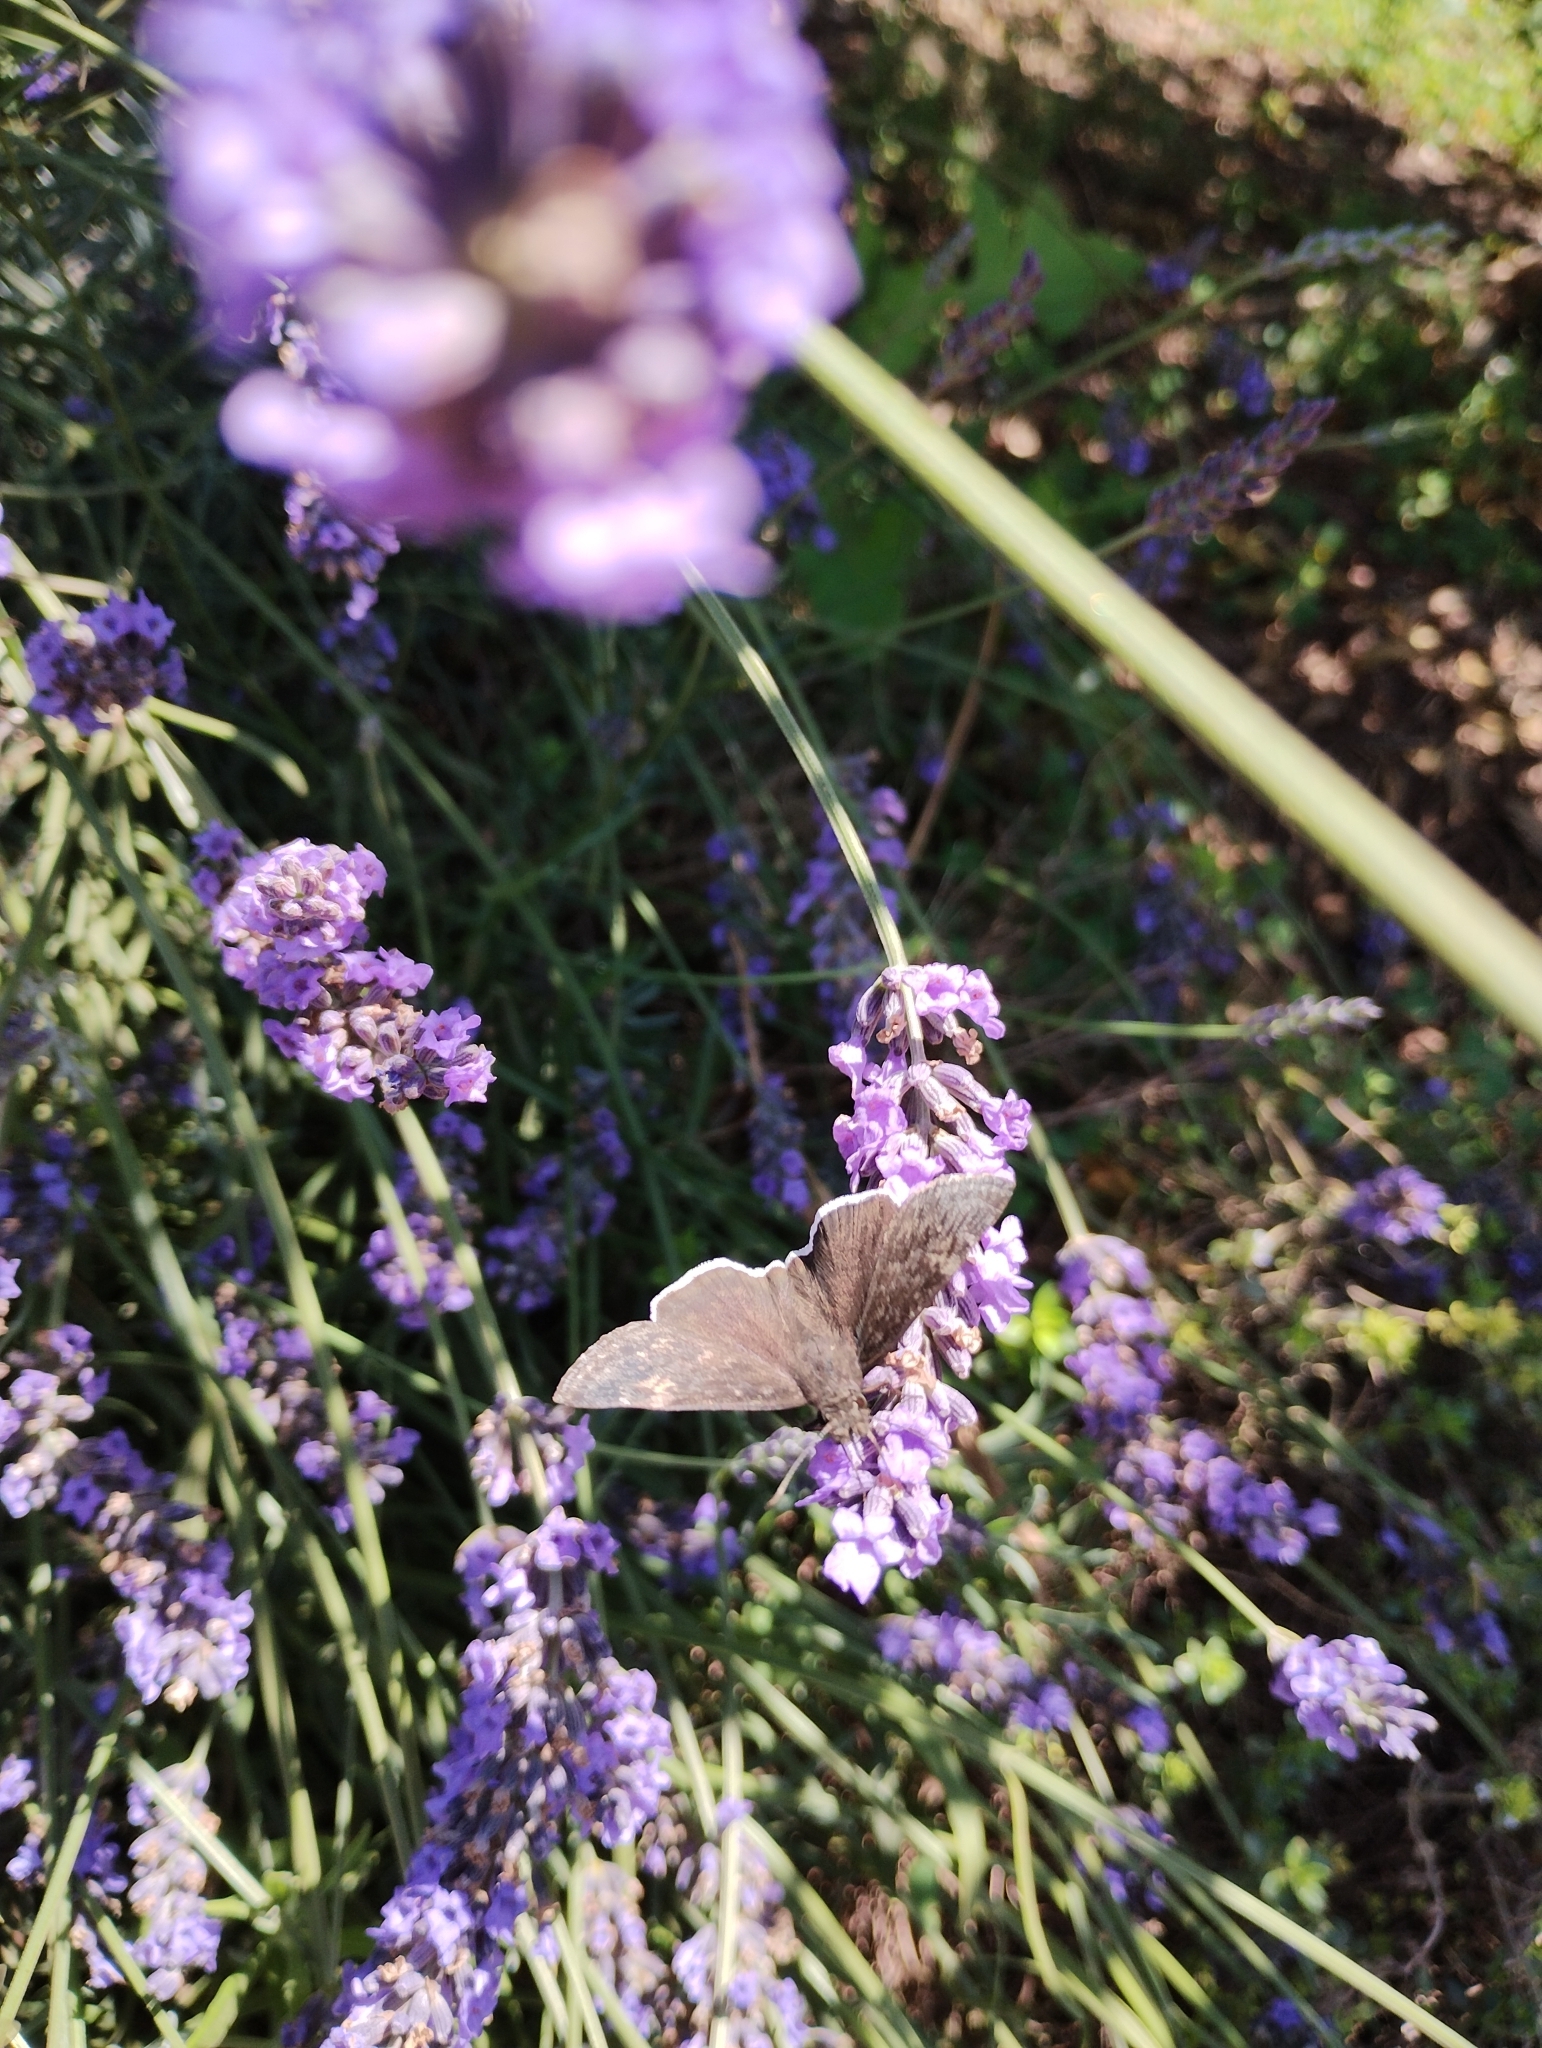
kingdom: Animalia
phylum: Arthropoda
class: Insecta
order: Lepidoptera
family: Hesperiidae
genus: Erynnis
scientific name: Erynnis funeralis
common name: Funereal duskywing
